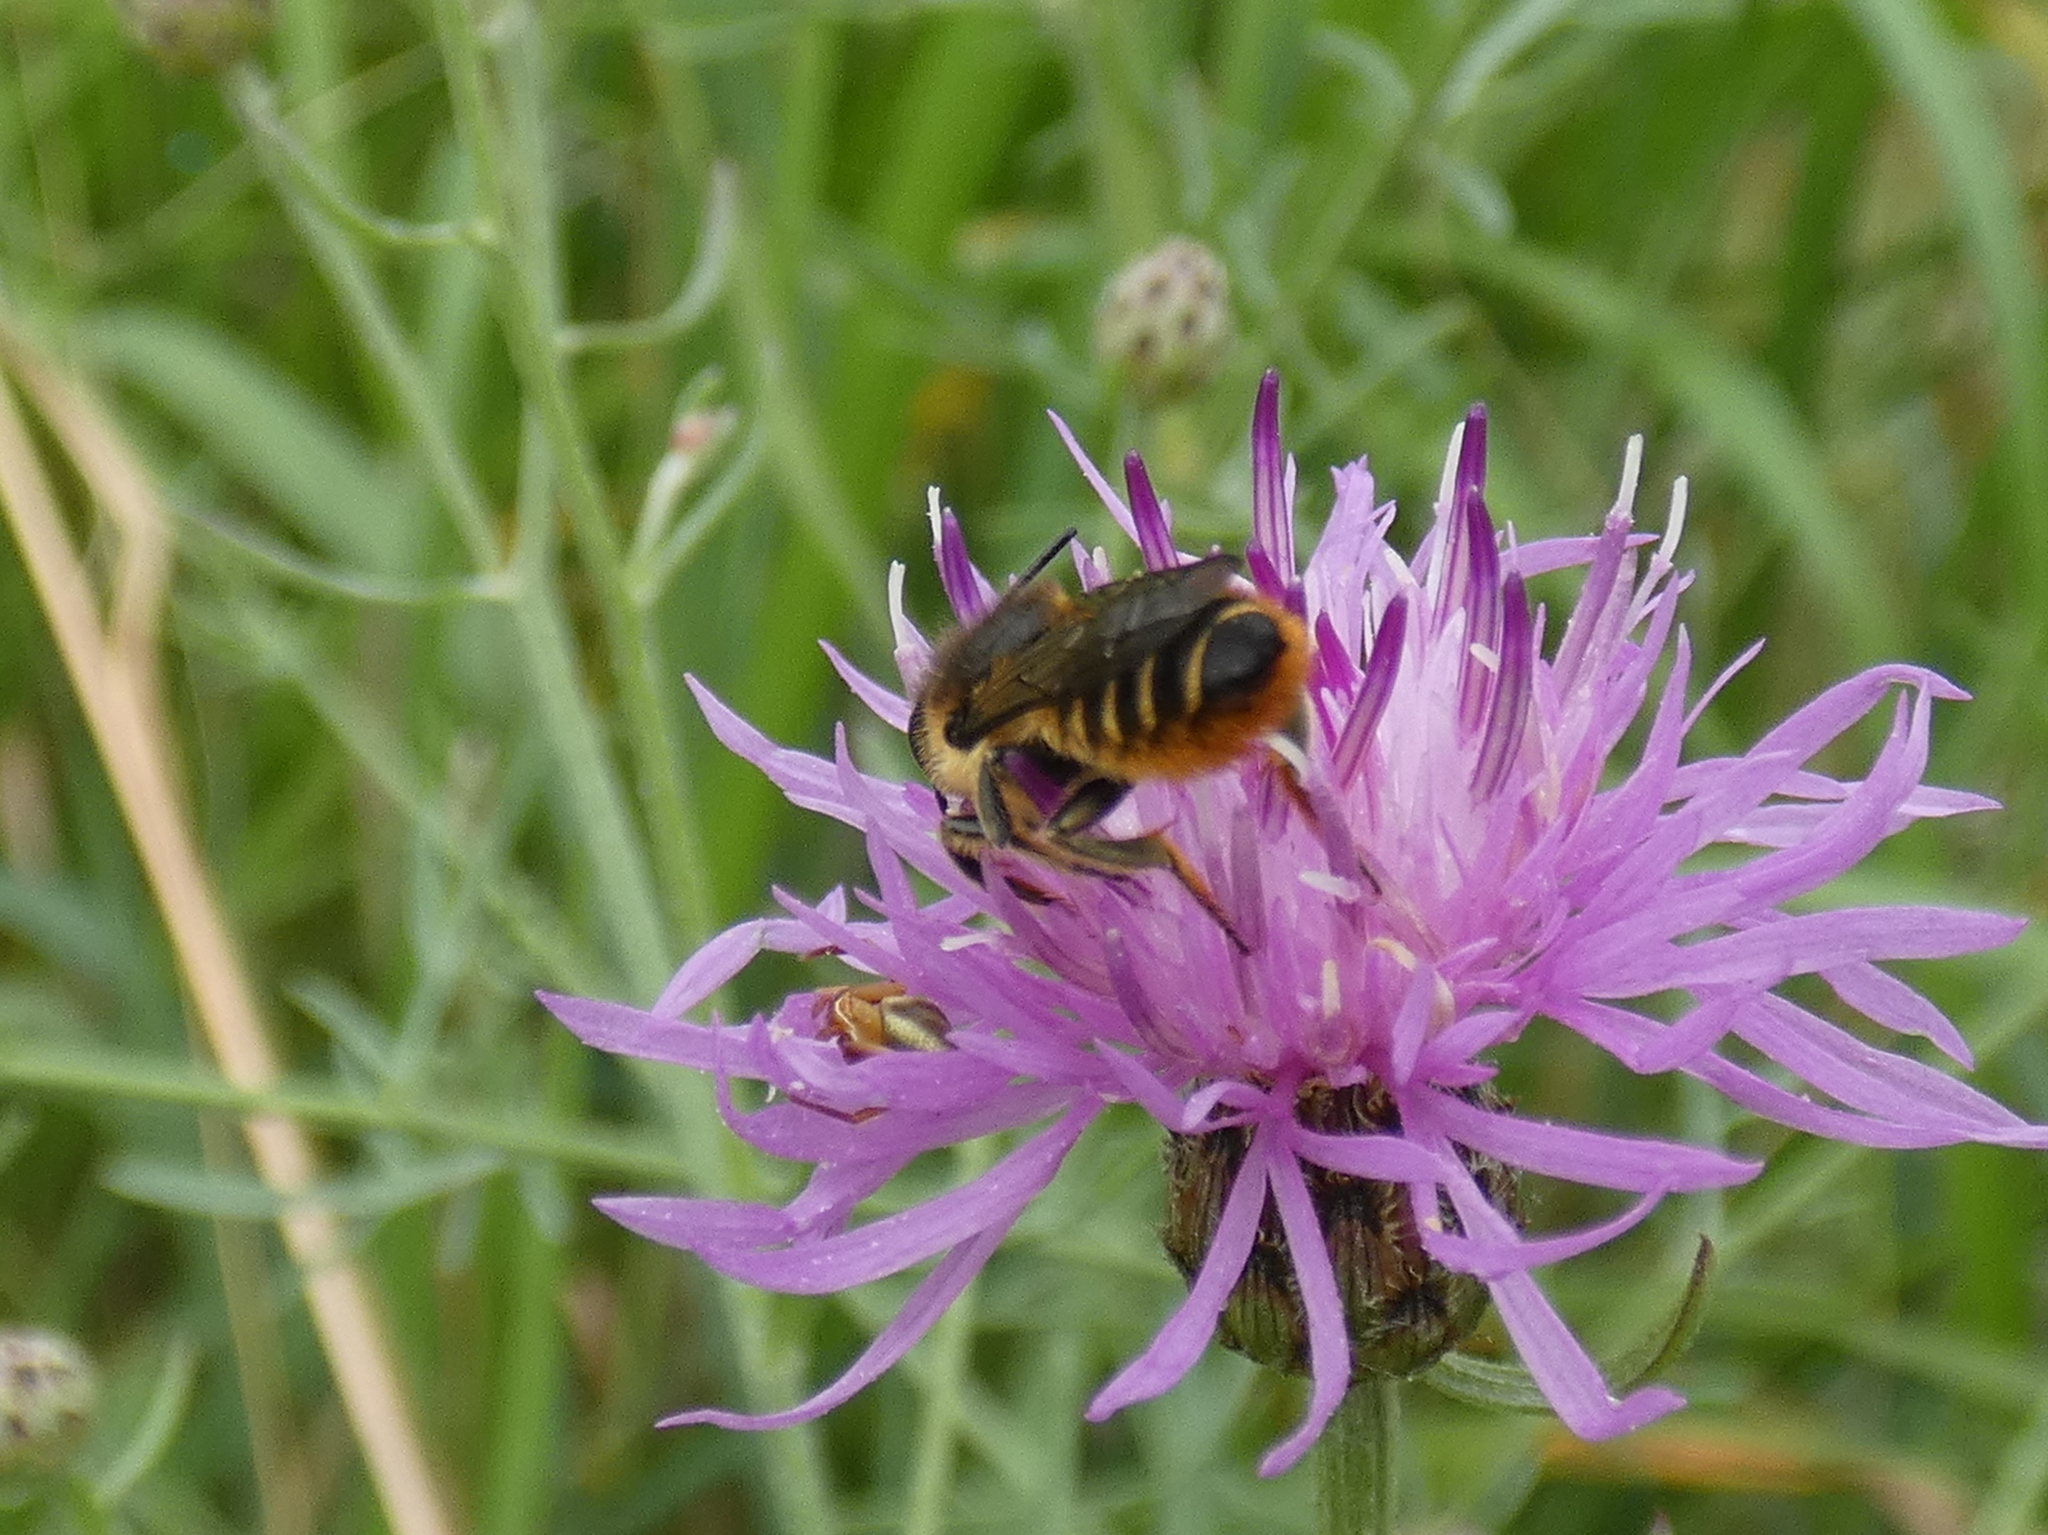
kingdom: Animalia
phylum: Arthropoda
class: Insecta
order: Hymenoptera
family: Megachilidae
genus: Megachile
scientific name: Megachile centuncularis
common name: Patchwork leafcutter bee
